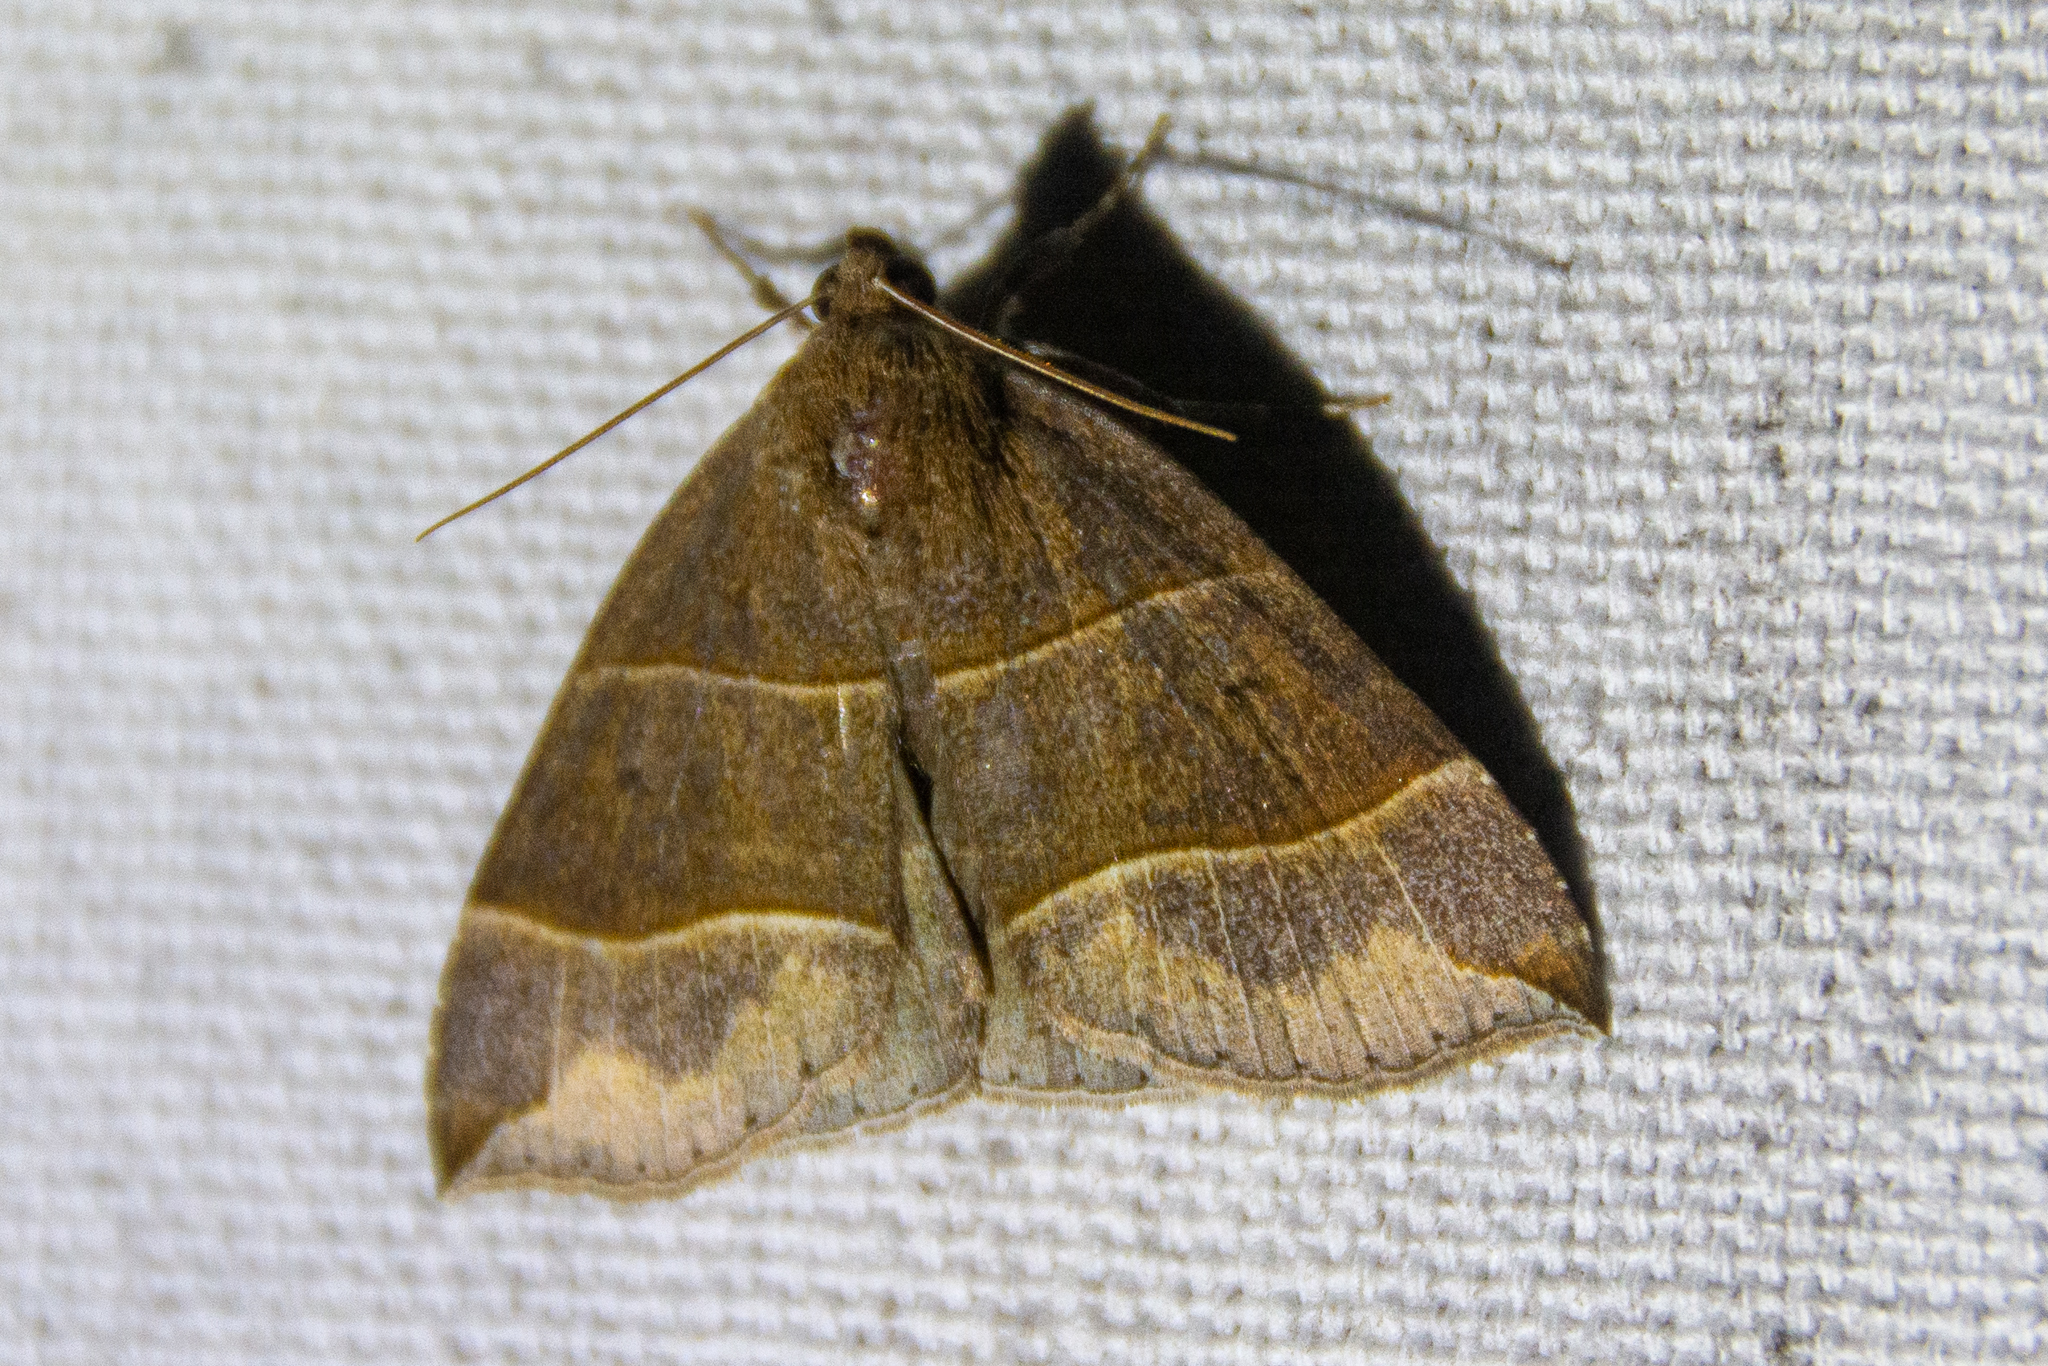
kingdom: Animalia
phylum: Arthropoda
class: Insecta
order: Lepidoptera
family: Erebidae
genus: Parallelia
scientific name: Parallelia bistriaris
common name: Maple looper moth
